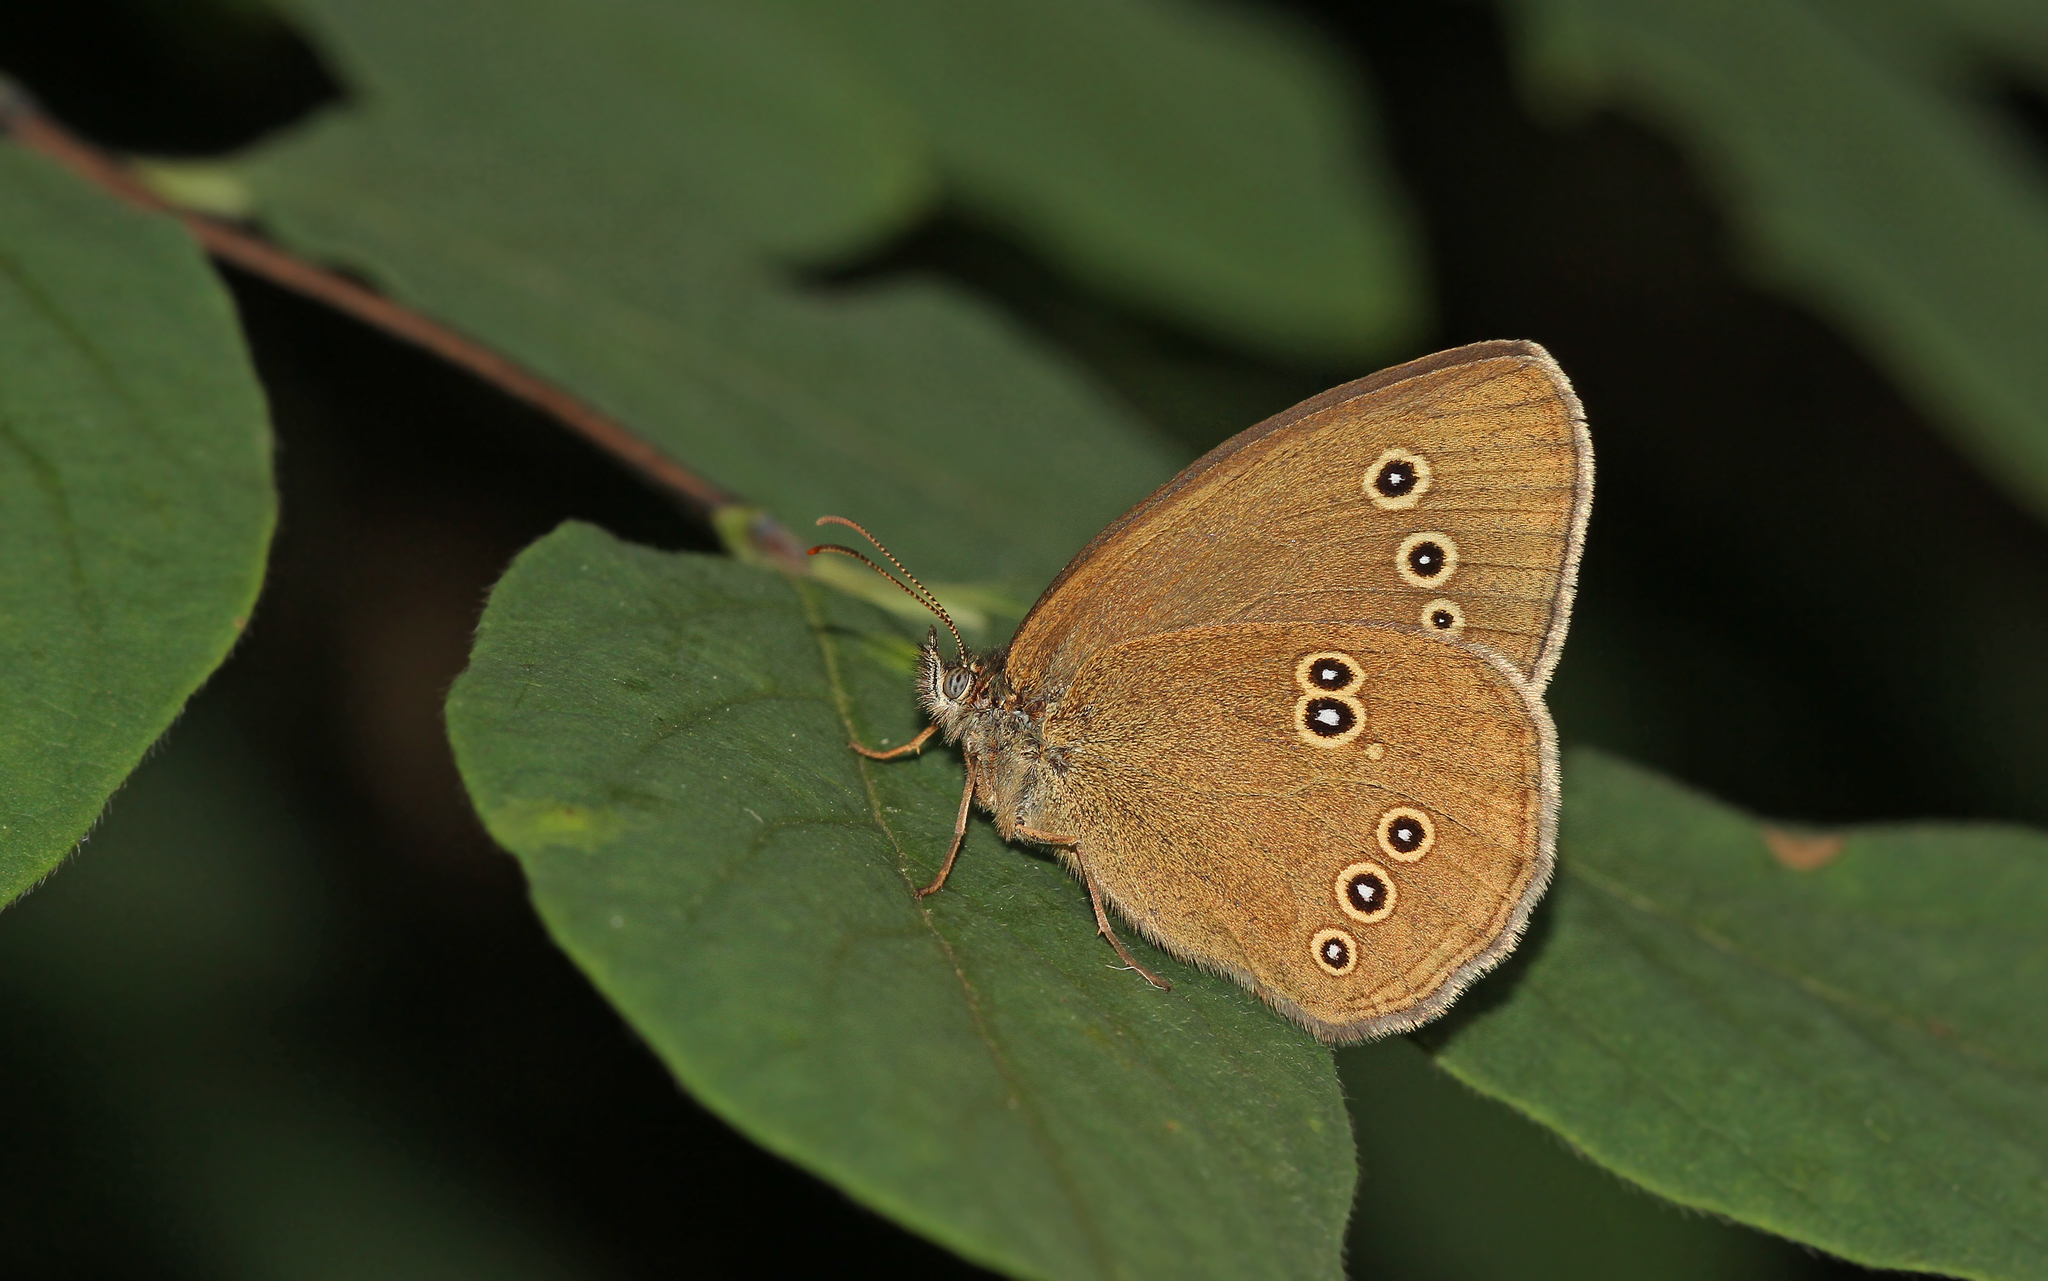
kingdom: Animalia
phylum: Arthropoda
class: Insecta
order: Lepidoptera
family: Nymphalidae
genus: Aphantopus
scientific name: Aphantopus hyperantus
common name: Ringlet
